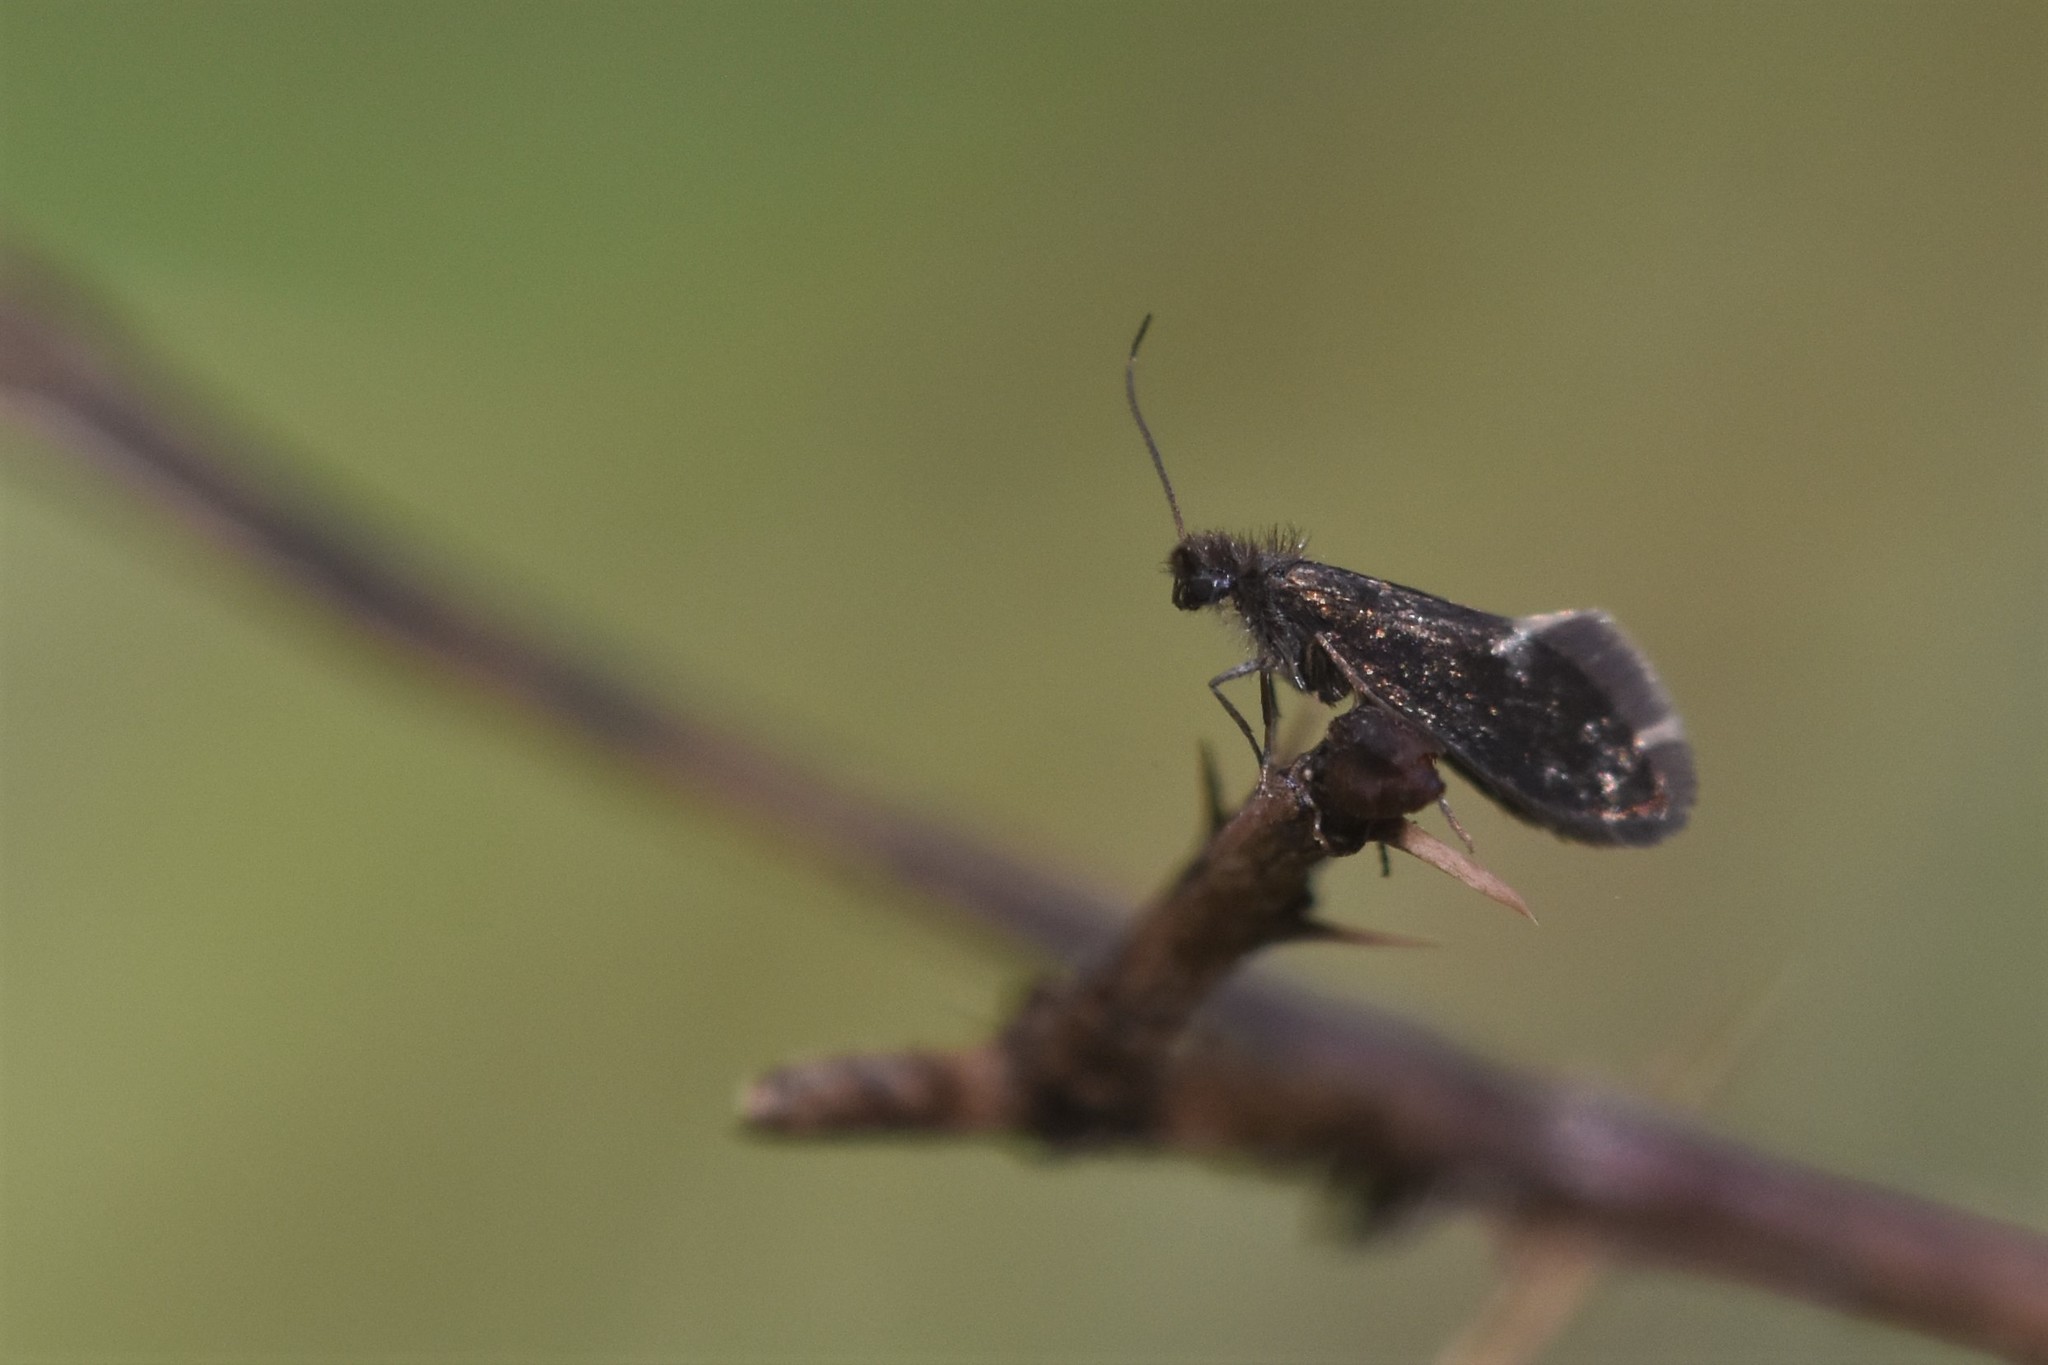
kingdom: Animalia
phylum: Arthropoda
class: Insecta
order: Lepidoptera
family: Eriocraniidae
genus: Eriocrania
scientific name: Eriocrania semipurpurella
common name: Early purple
